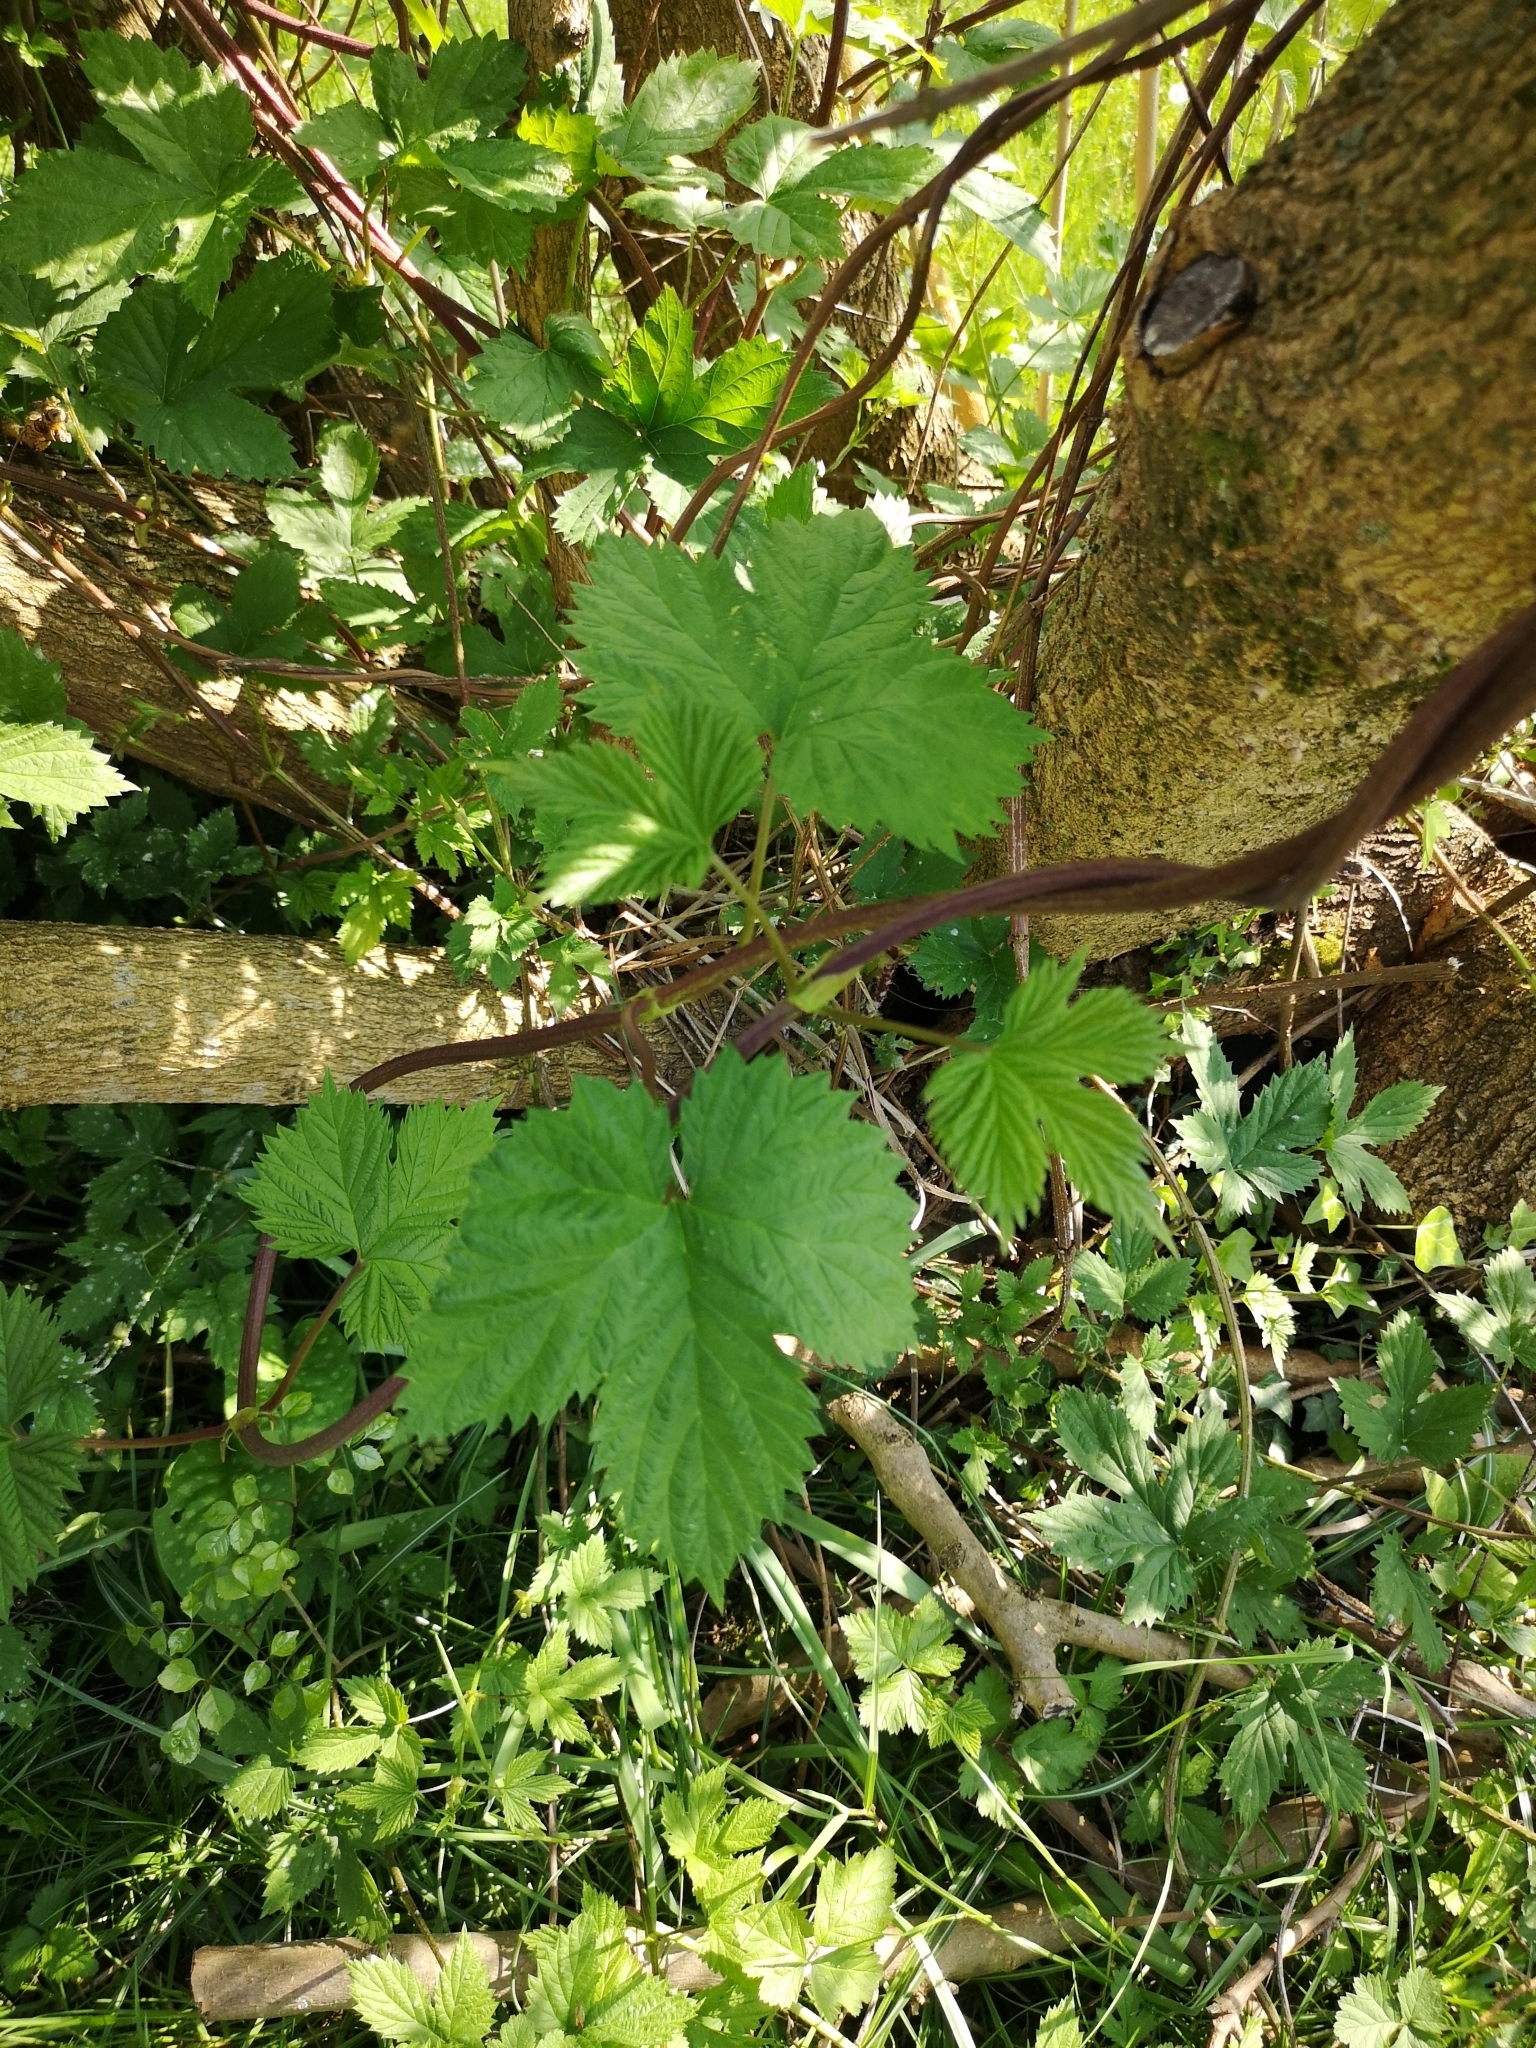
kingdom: Plantae
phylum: Tracheophyta
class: Magnoliopsida
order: Rosales
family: Cannabaceae
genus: Humulus
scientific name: Humulus lupulus
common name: Hop
